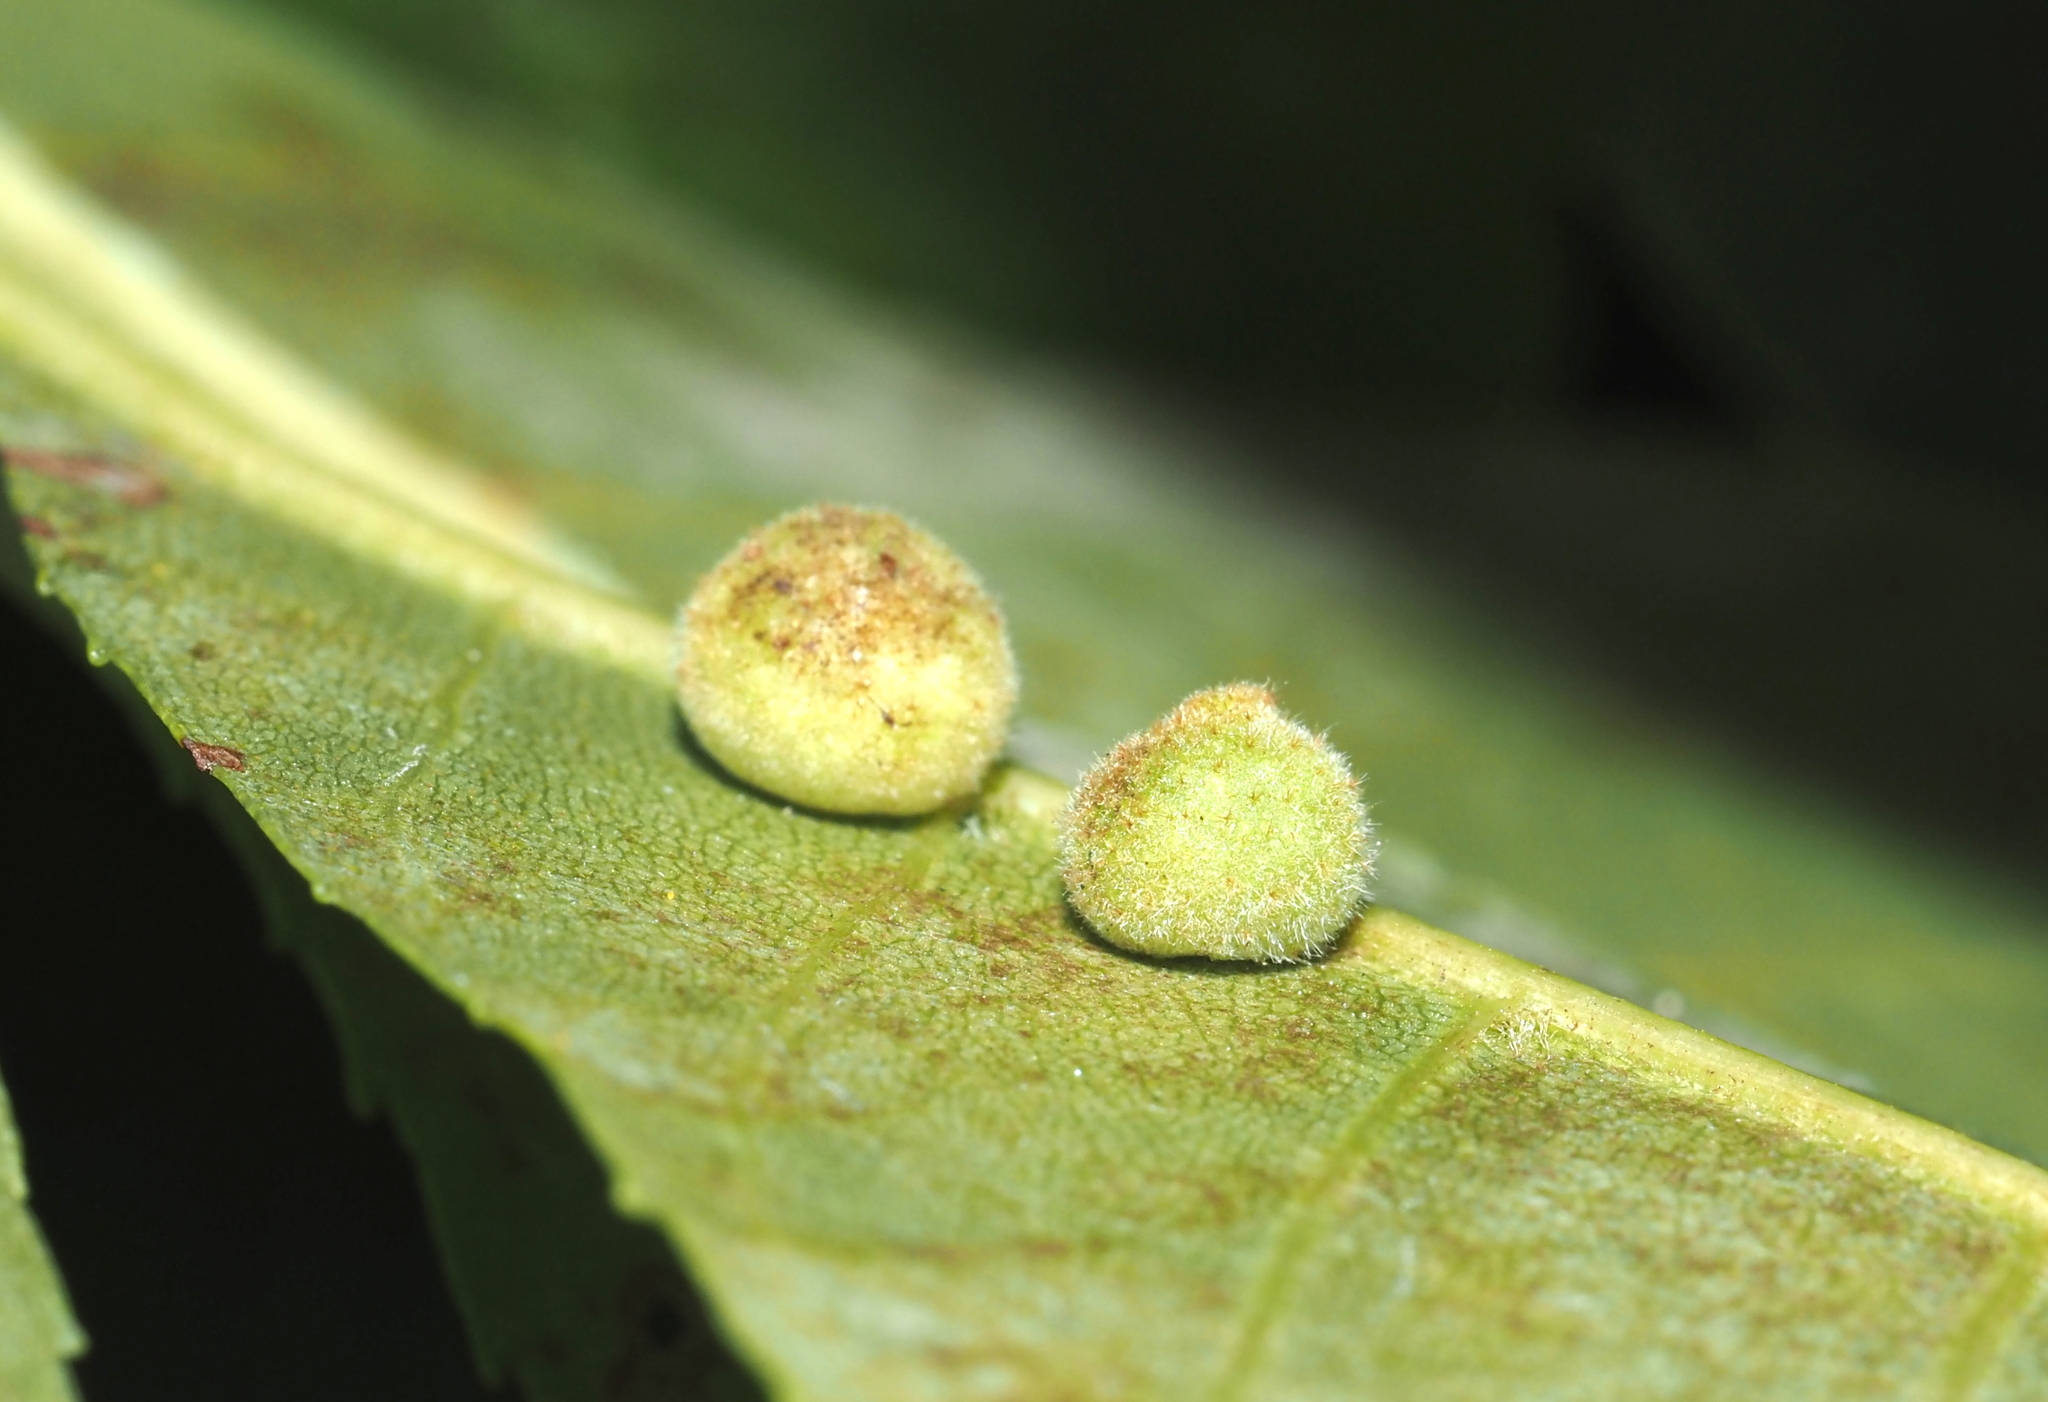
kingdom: Animalia
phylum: Arthropoda
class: Insecta
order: Diptera
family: Cecidomyiidae
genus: Caryomyia
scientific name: Caryomyia persicoides
